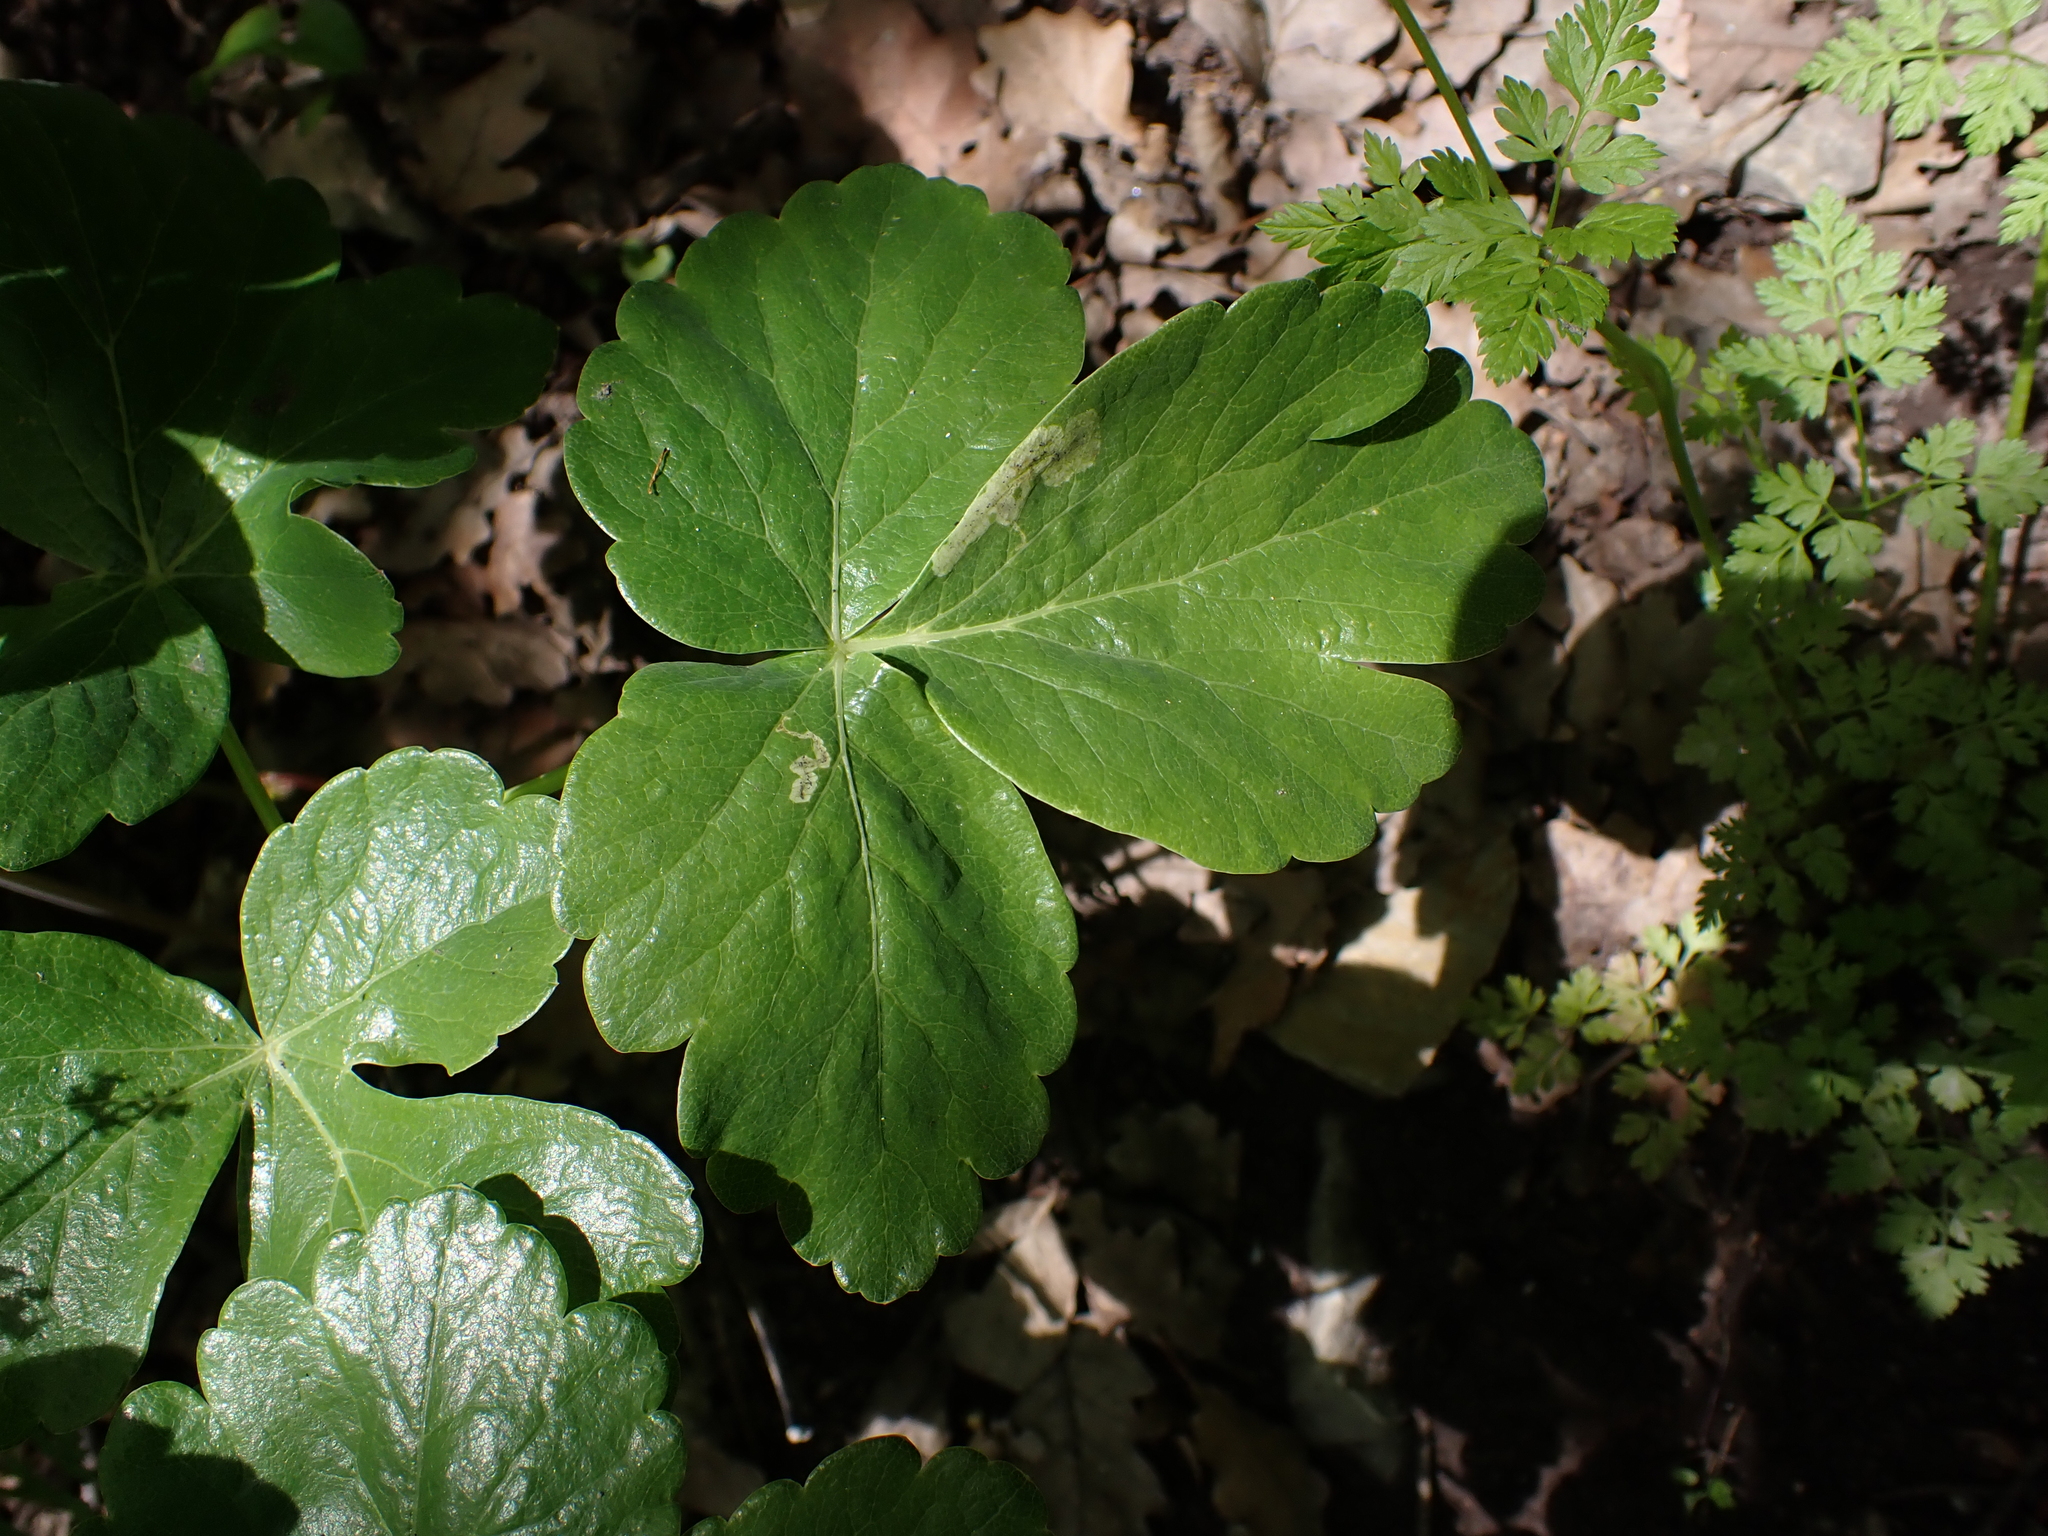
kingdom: Plantae
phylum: Tracheophyta
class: Magnoliopsida
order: Apiales
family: Apiaceae
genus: Laser
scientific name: Laser trilobum
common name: Laser
